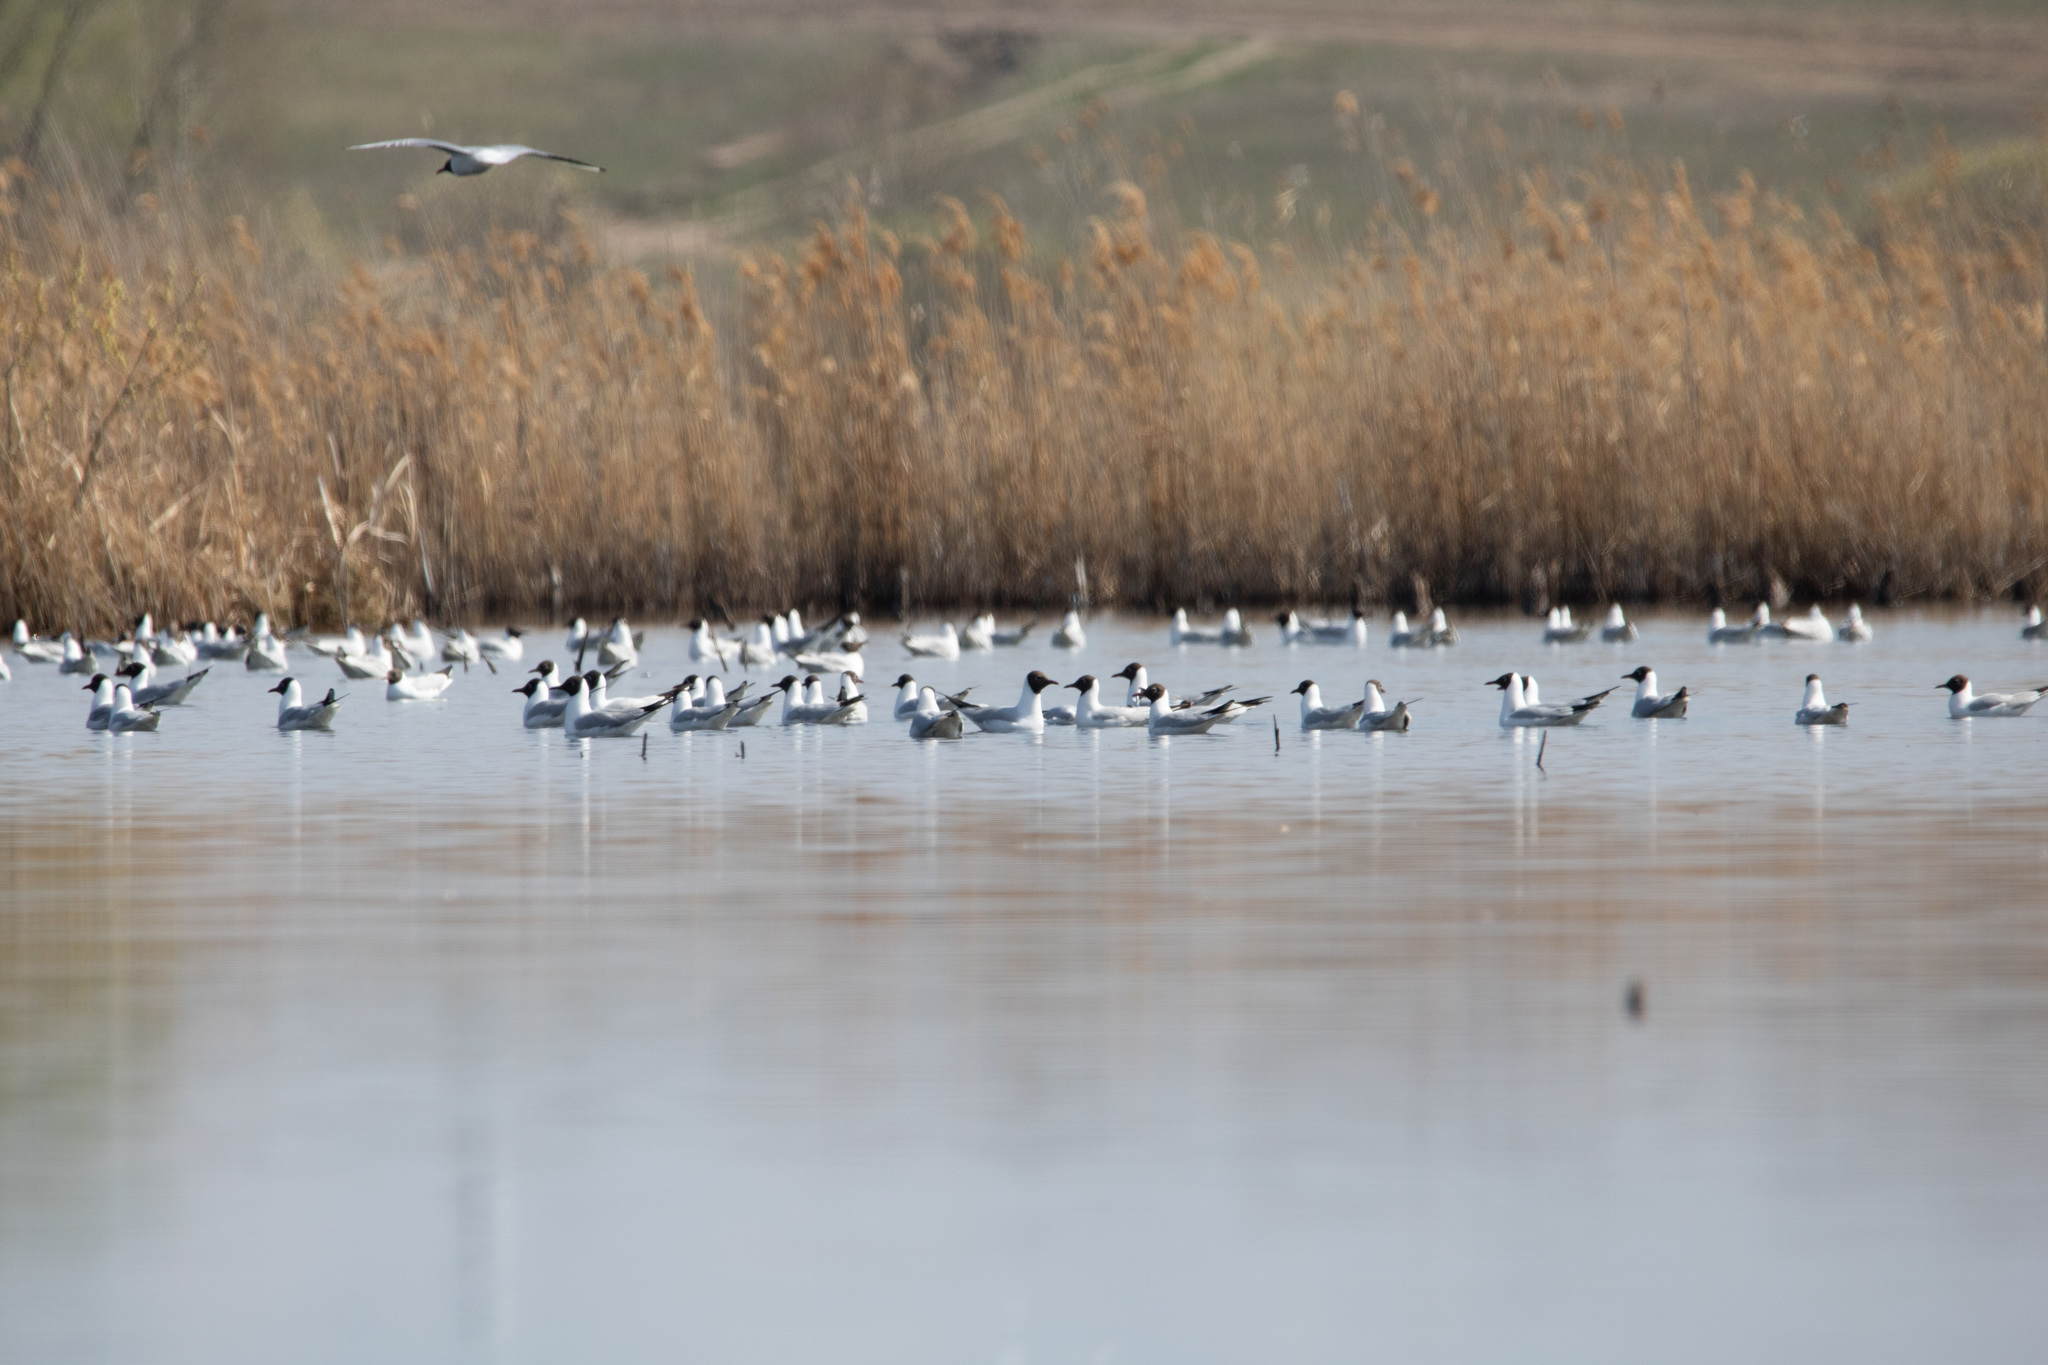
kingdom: Animalia
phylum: Chordata
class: Aves
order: Charadriiformes
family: Laridae
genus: Chroicocephalus
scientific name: Chroicocephalus ridibundus
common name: Black-headed gull
